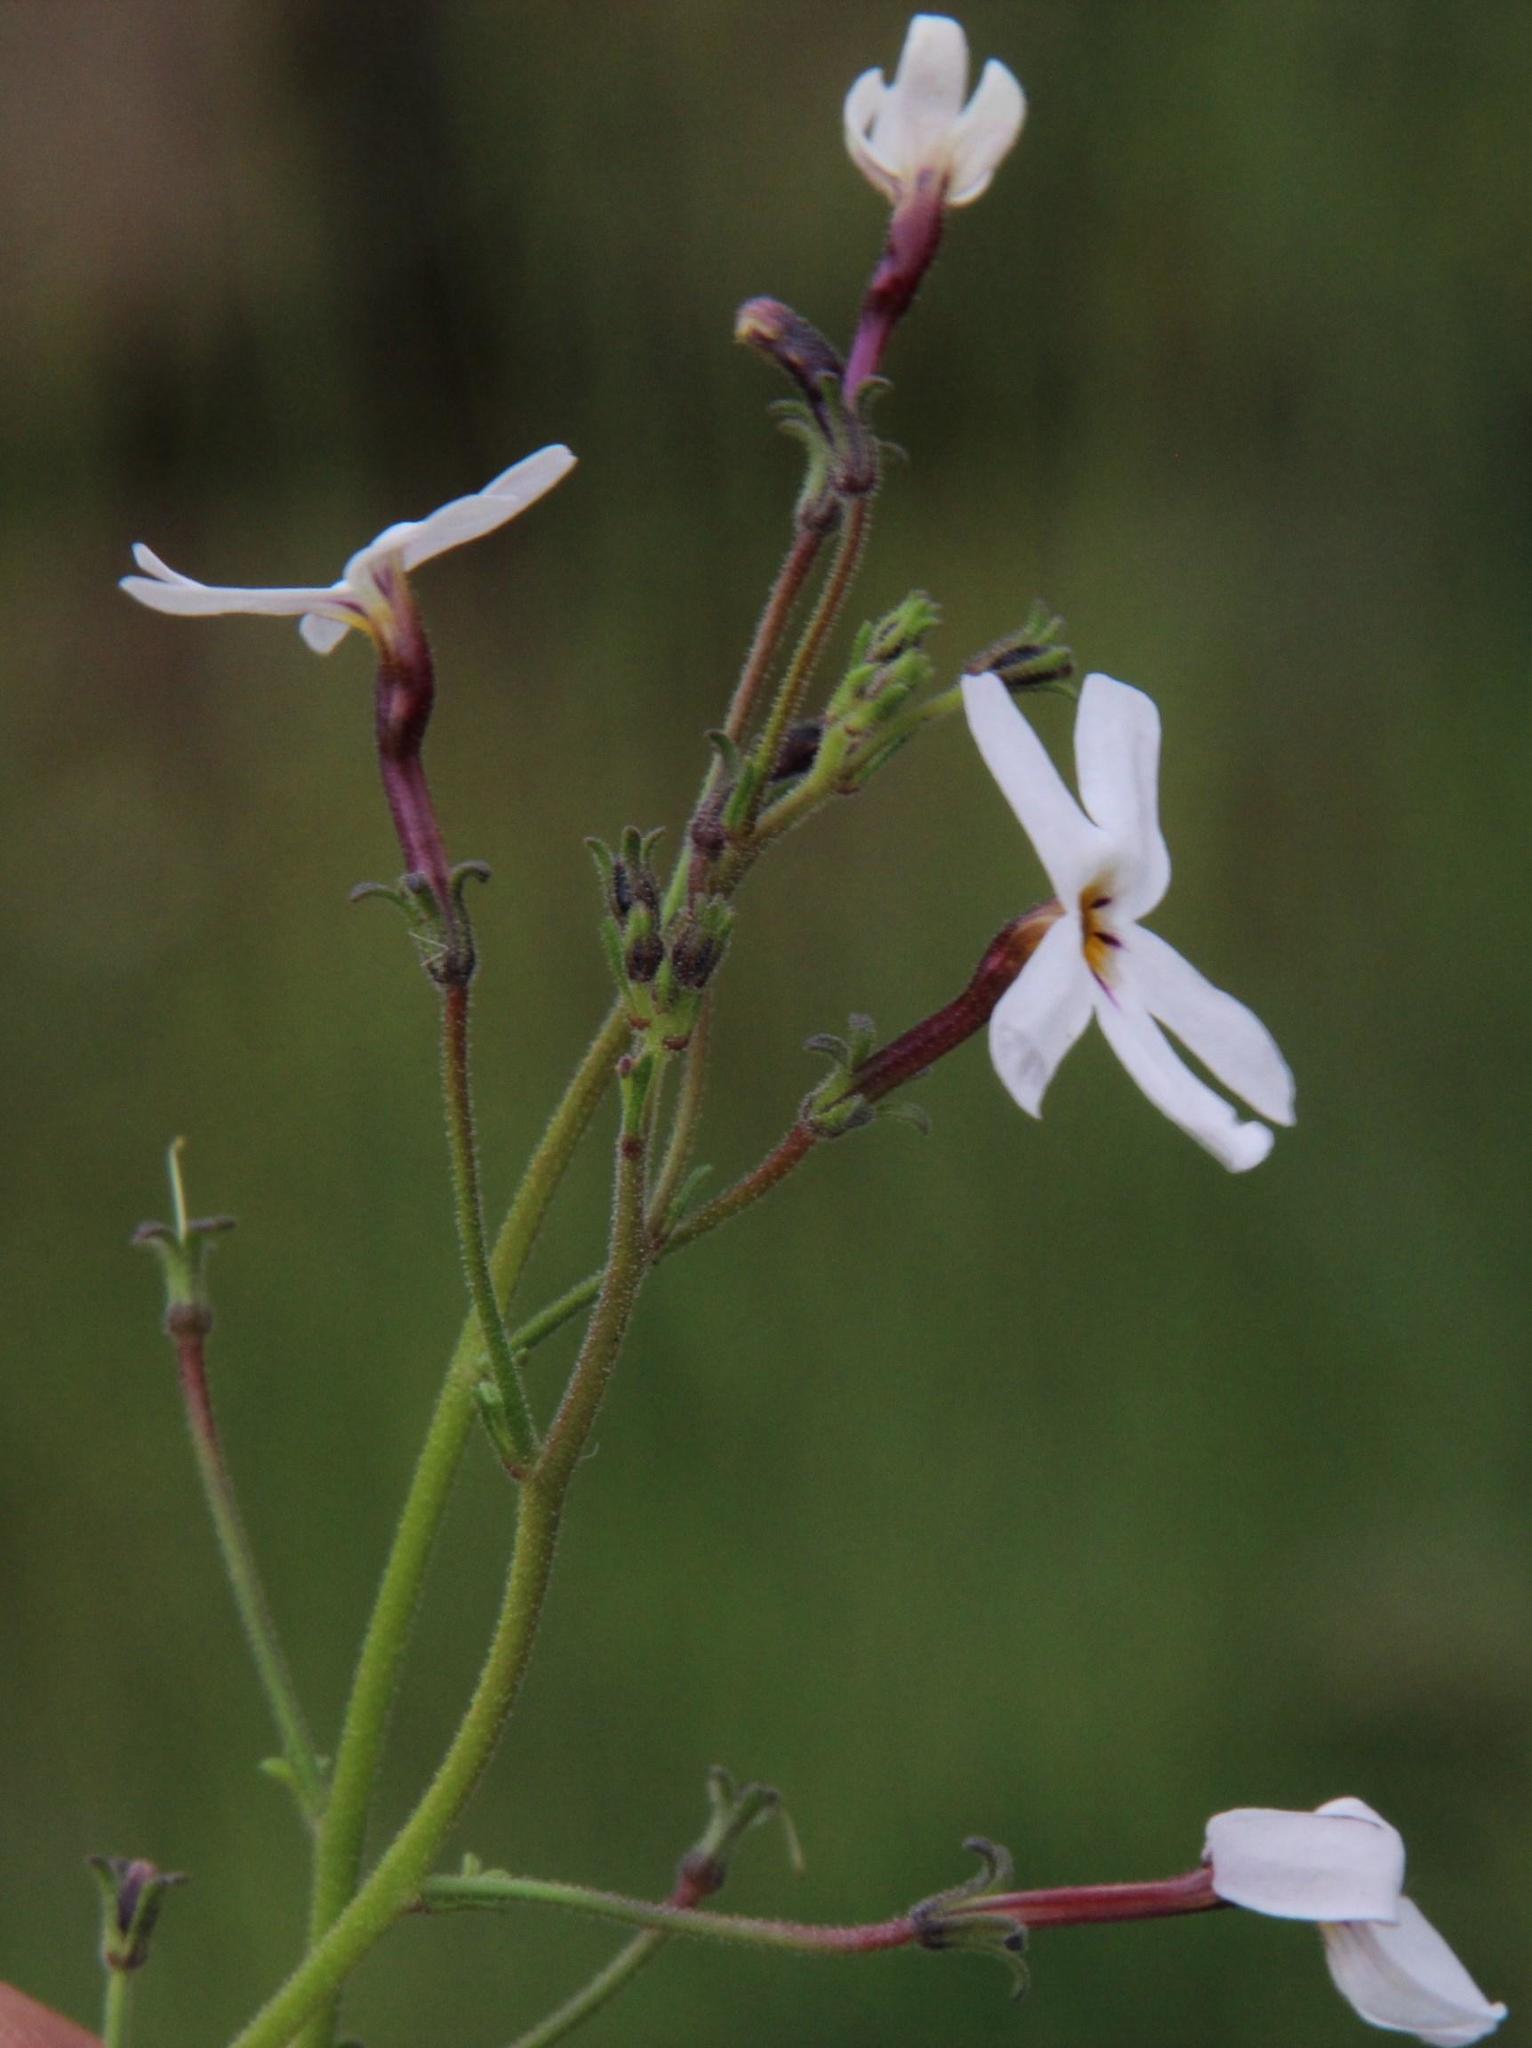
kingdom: Plantae
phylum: Tracheophyta
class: Magnoliopsida
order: Lamiales
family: Scrophulariaceae
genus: Jamesbrittenia
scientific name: Jamesbrittenia filicaulis
